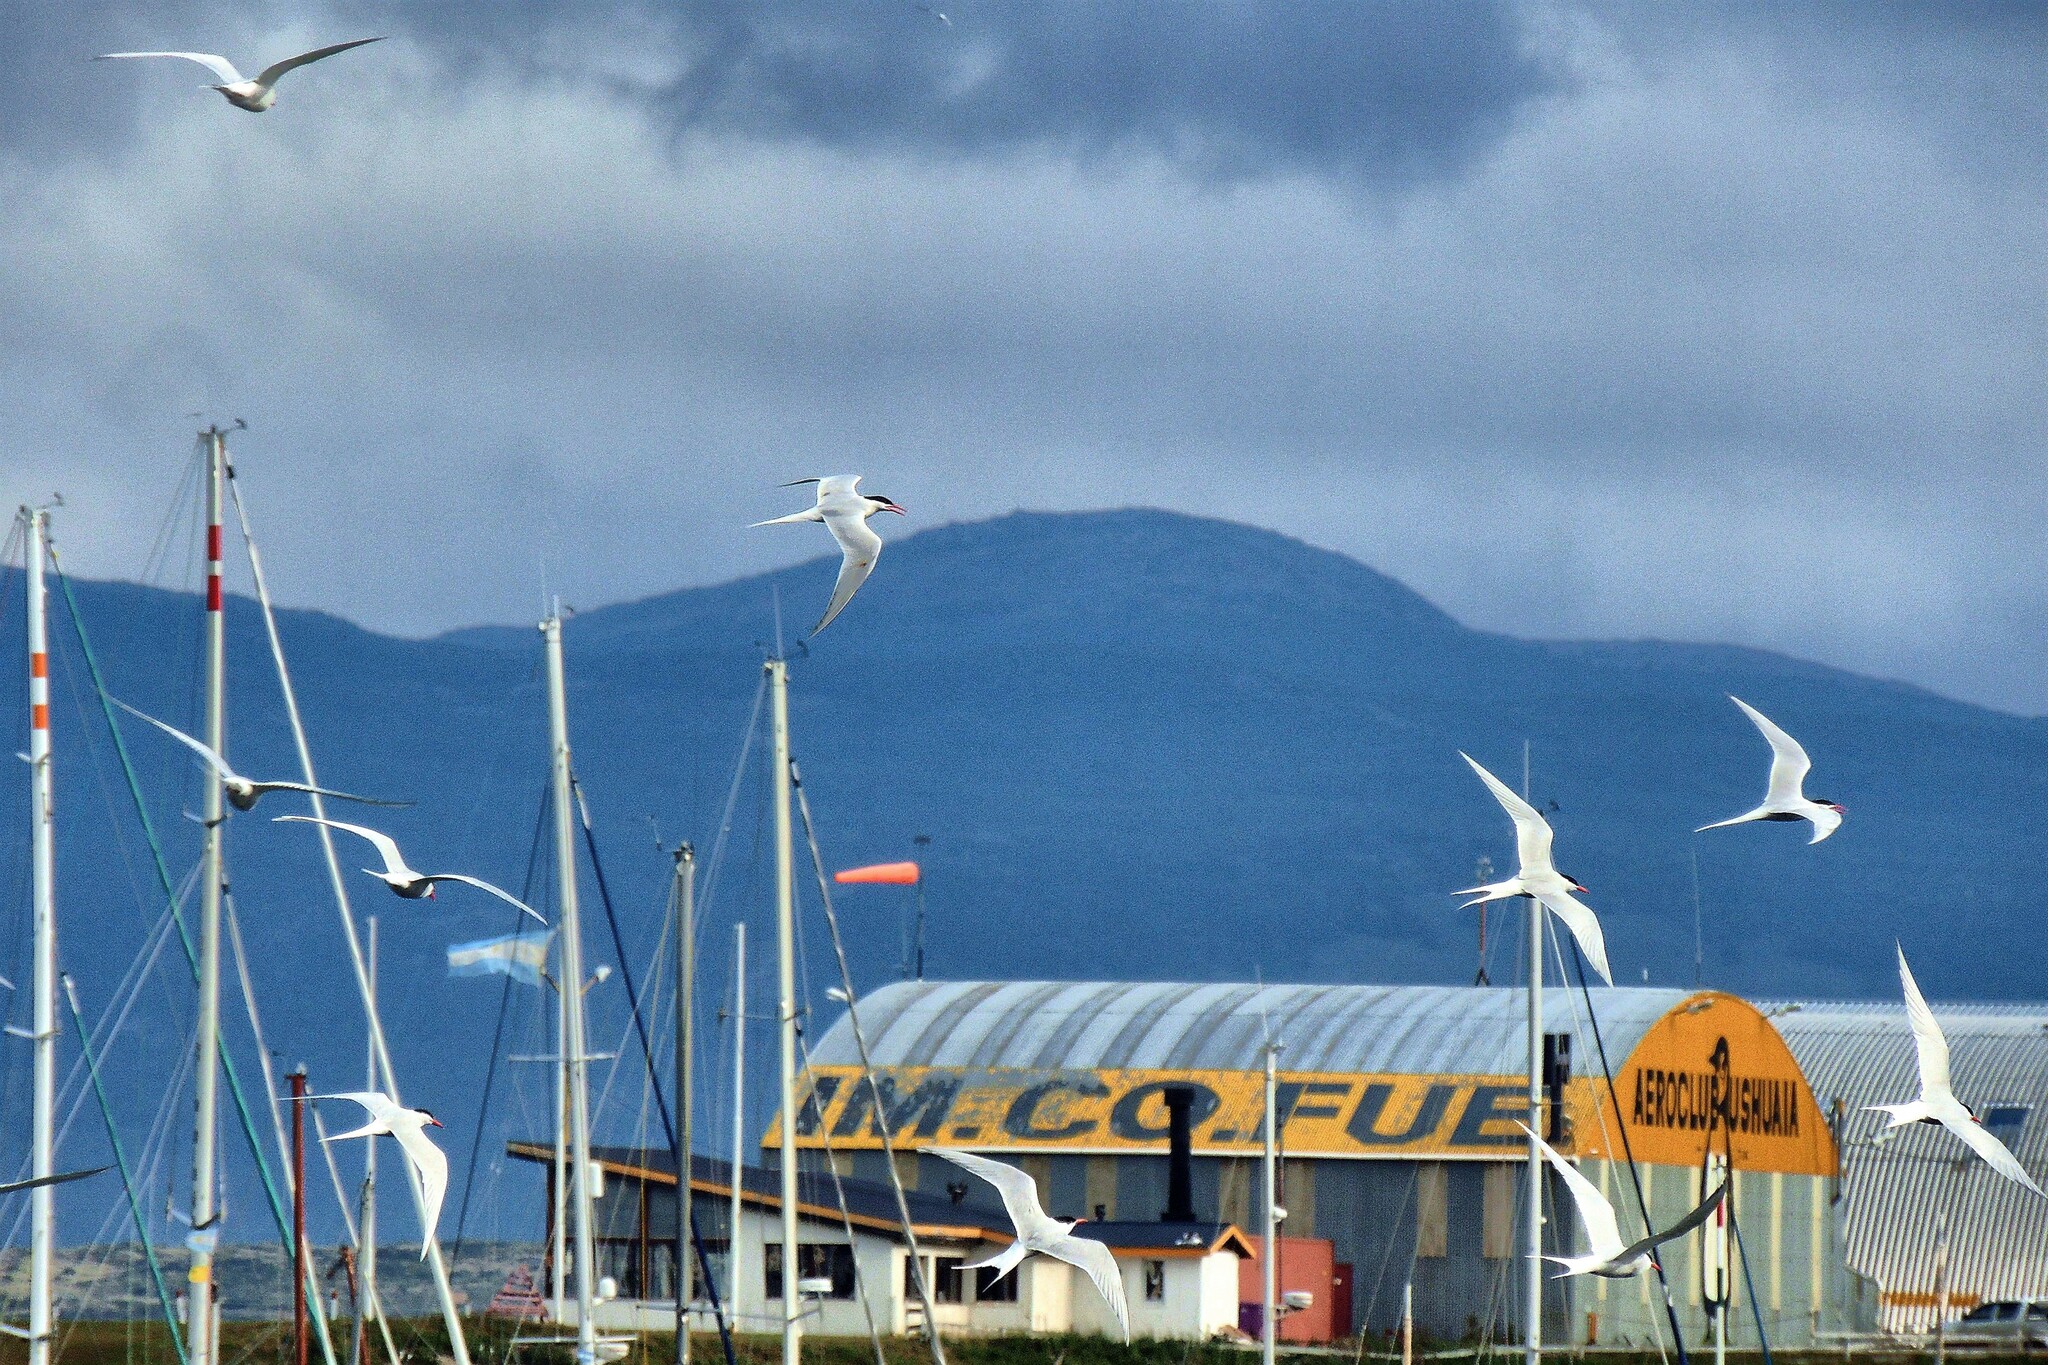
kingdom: Animalia
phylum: Chordata
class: Aves
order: Charadriiformes
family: Laridae
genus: Sterna
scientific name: Sterna hirundinacea
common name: South american tern
